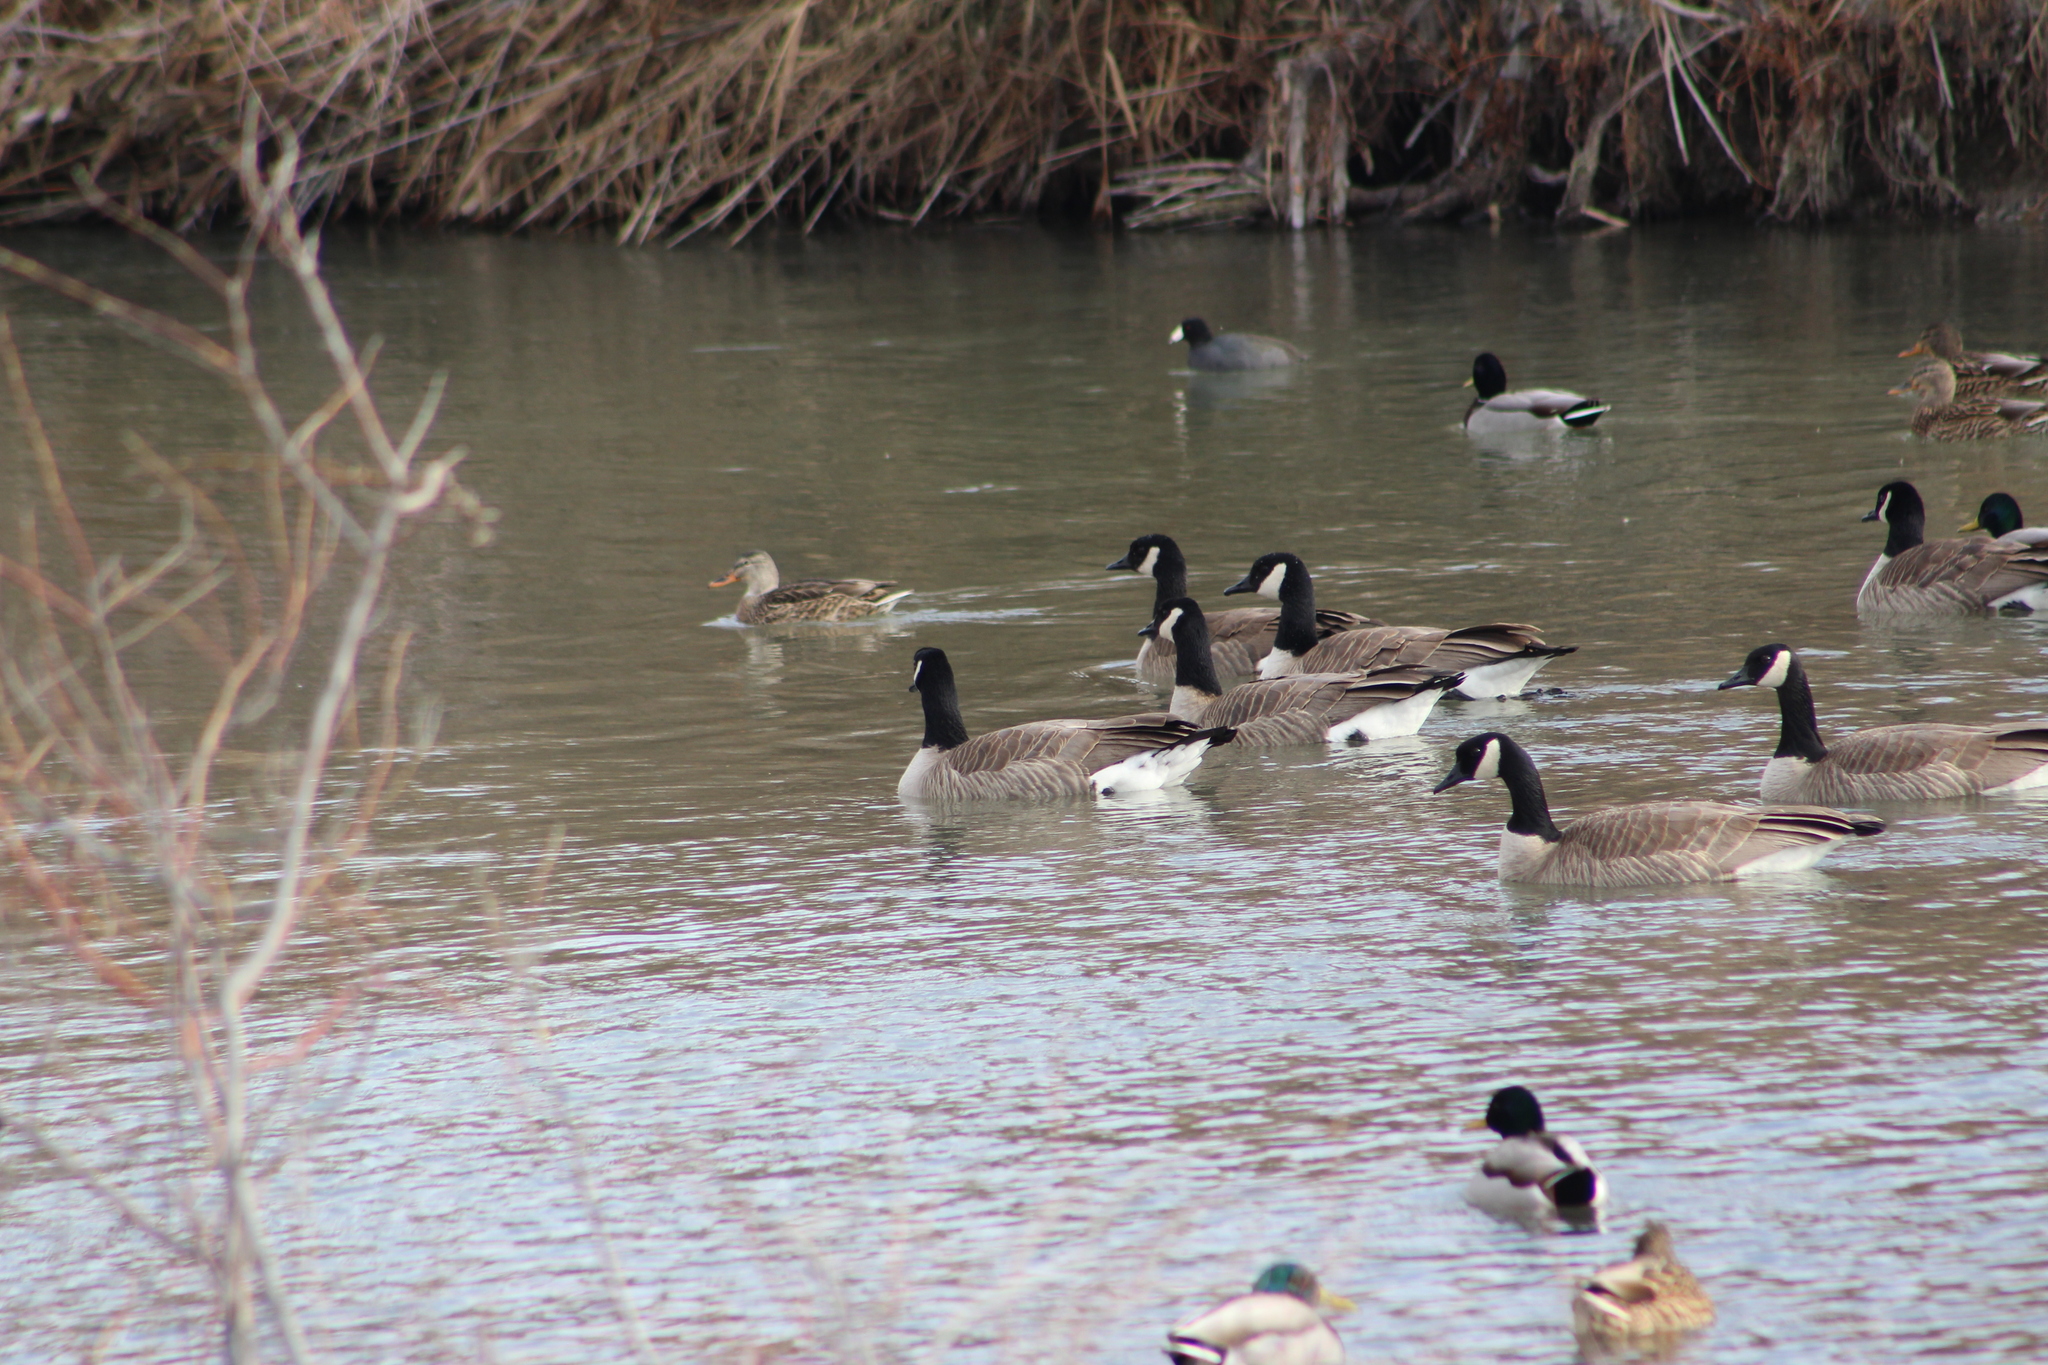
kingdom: Animalia
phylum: Chordata
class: Aves
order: Anseriformes
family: Anatidae
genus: Branta
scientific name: Branta canadensis
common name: Canada goose
